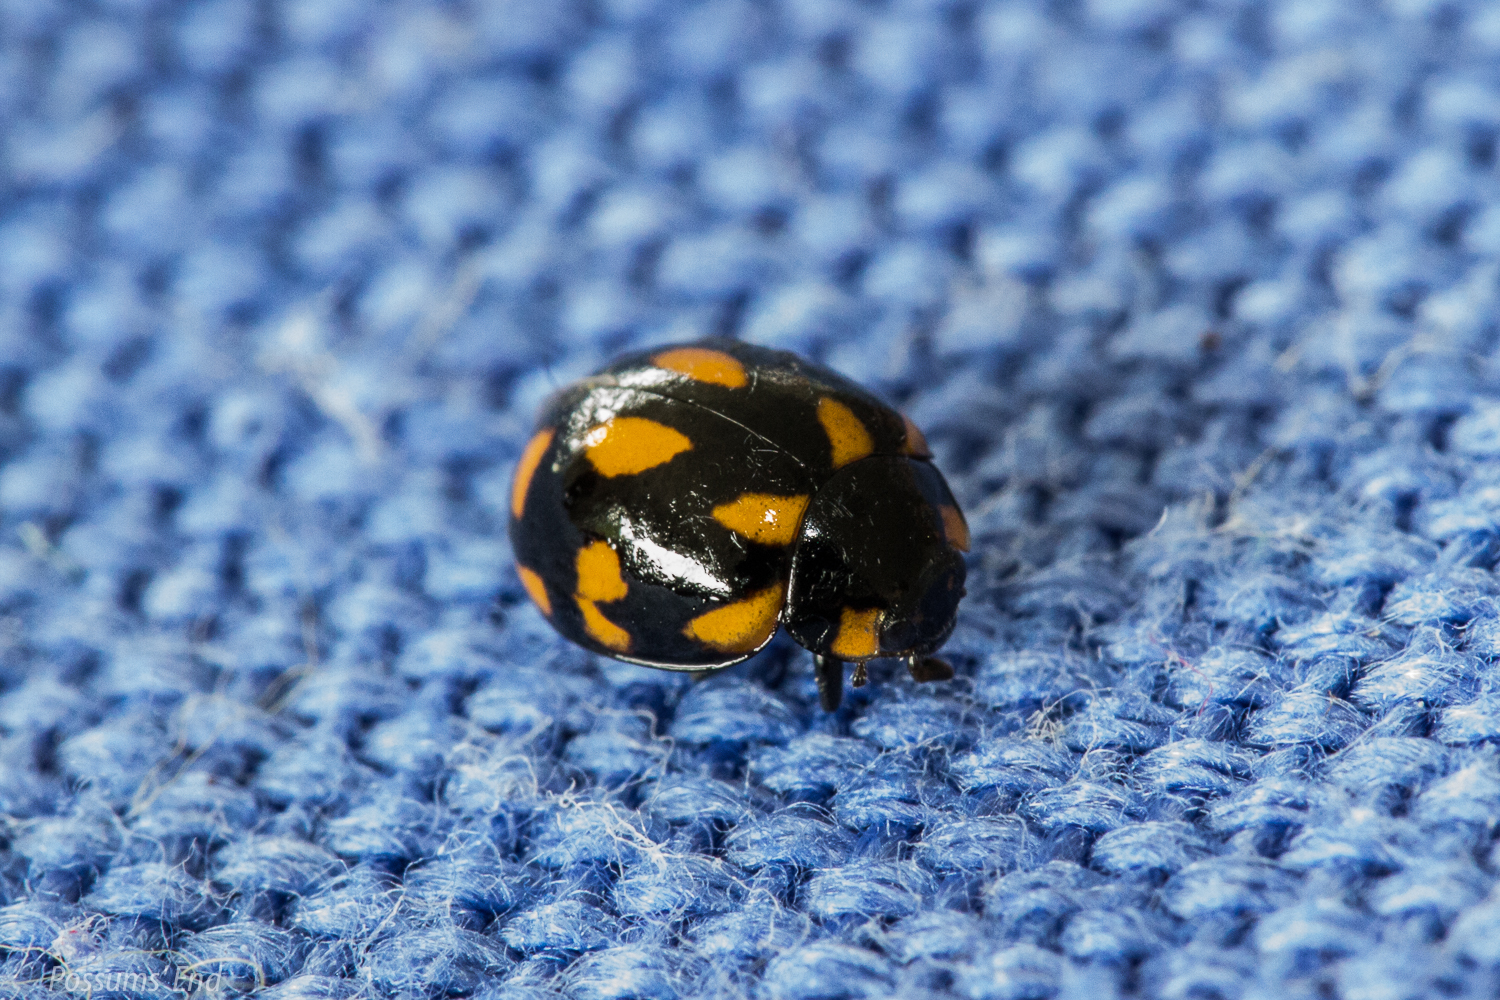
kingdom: Animalia
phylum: Arthropoda
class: Insecta
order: Coleoptera
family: Coccinellidae
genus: Coccinella
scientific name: Coccinella leonina
